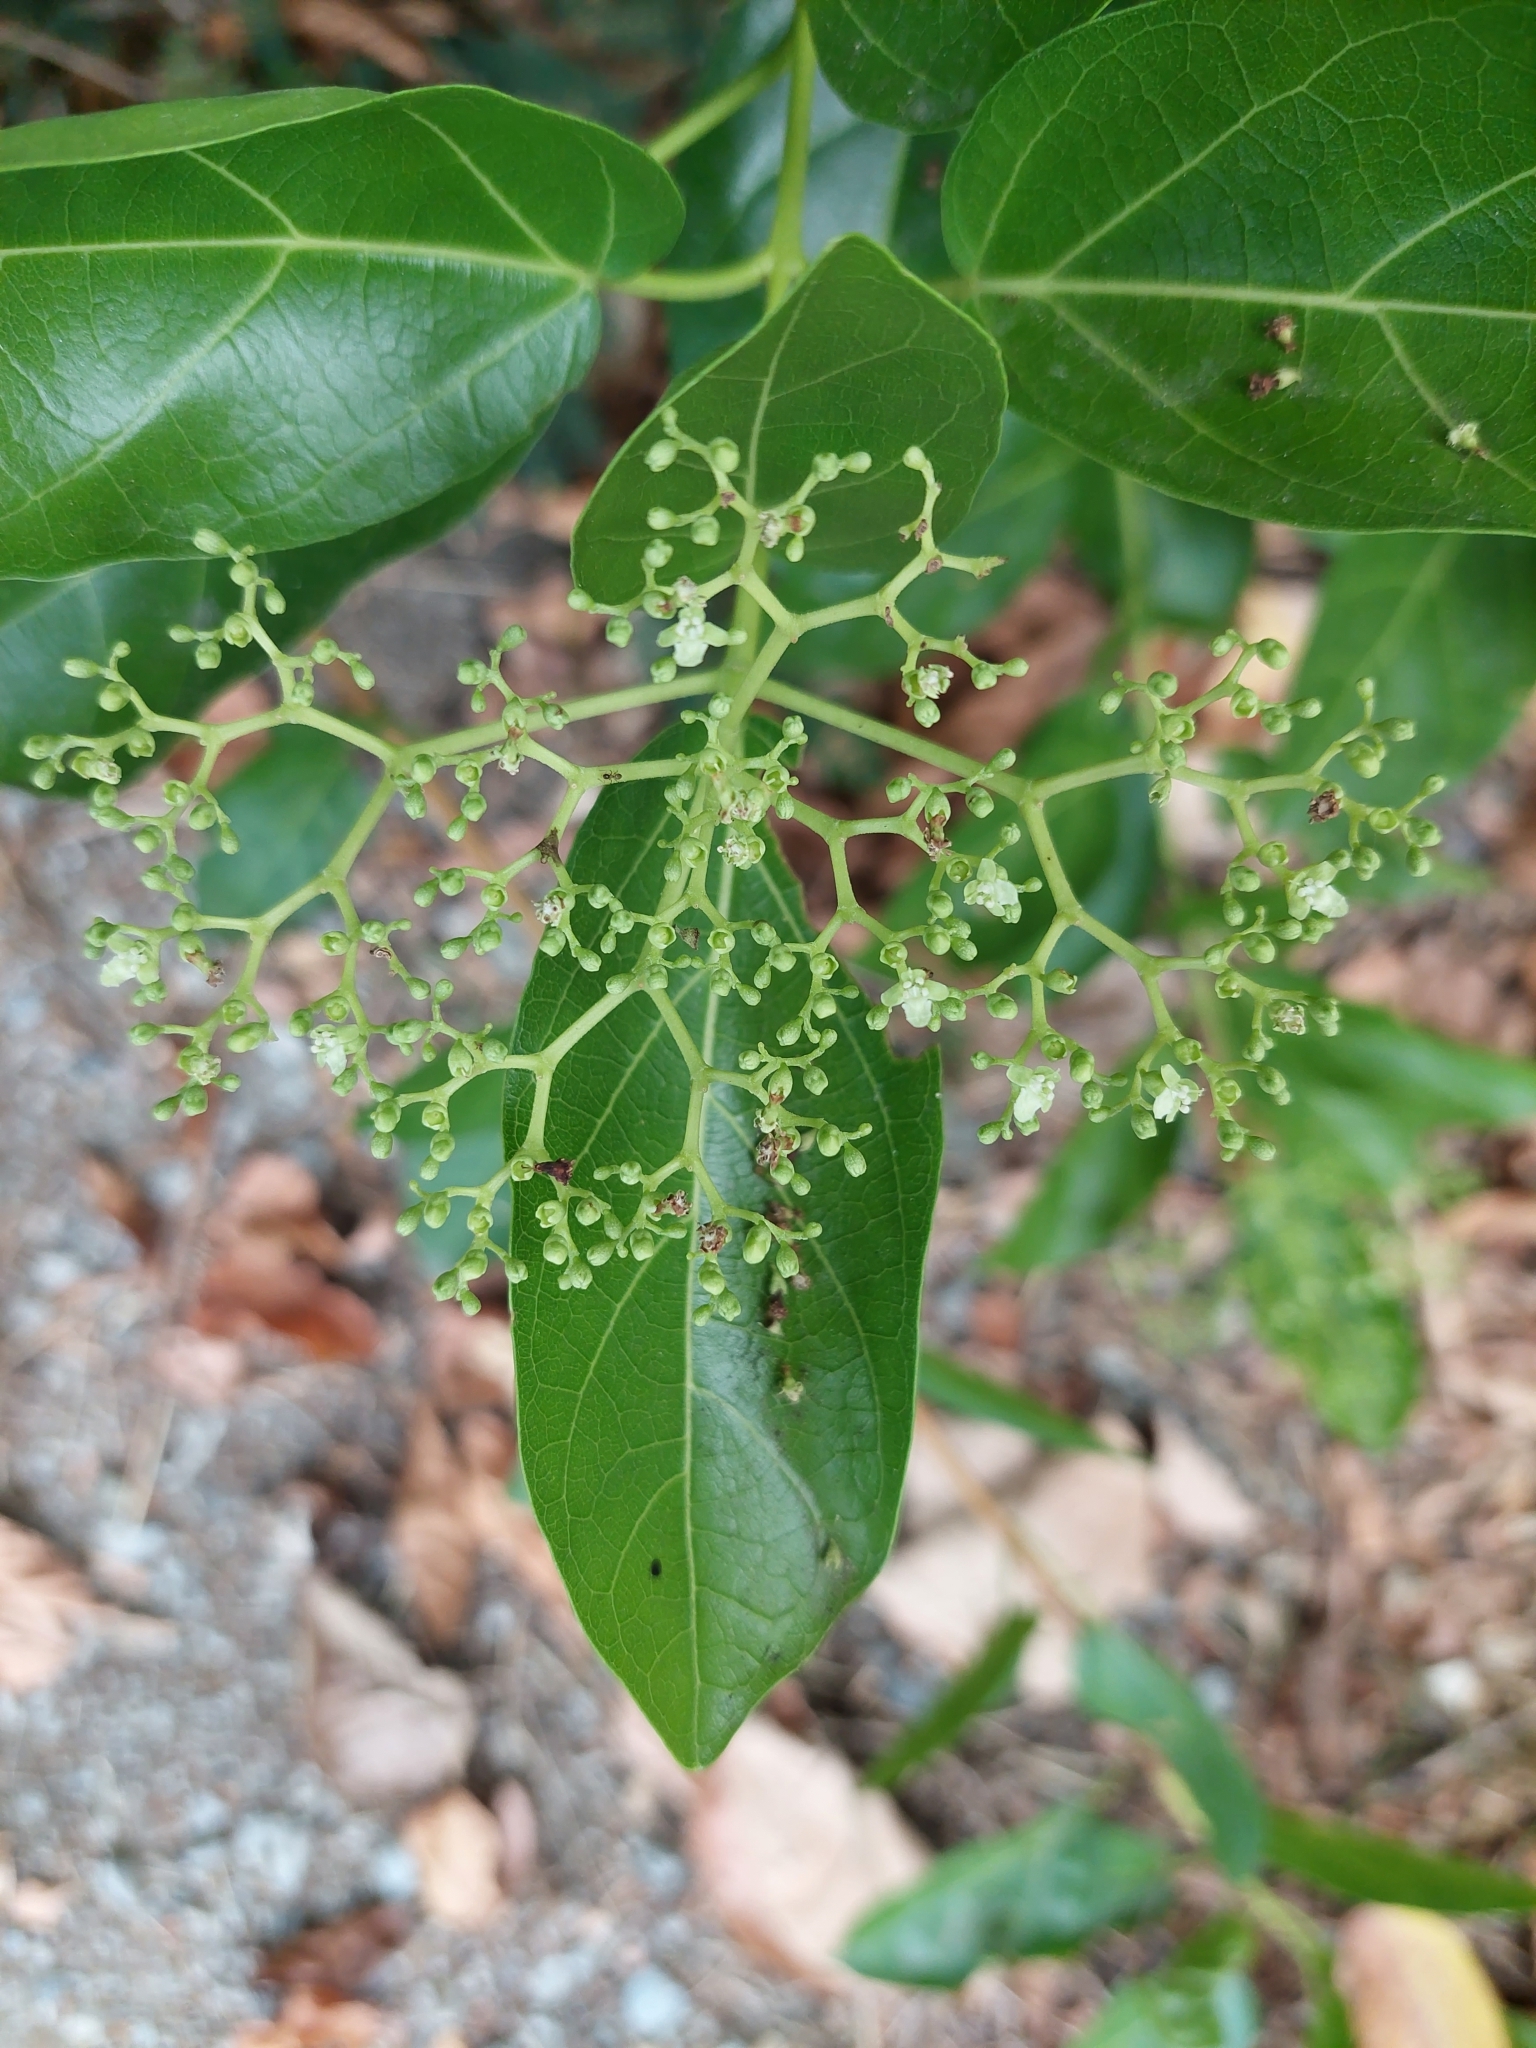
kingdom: Plantae
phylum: Tracheophyta
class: Magnoliopsida
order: Lamiales
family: Lamiaceae
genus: Premna
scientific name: Premna serratifolia
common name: Bastard guelder
